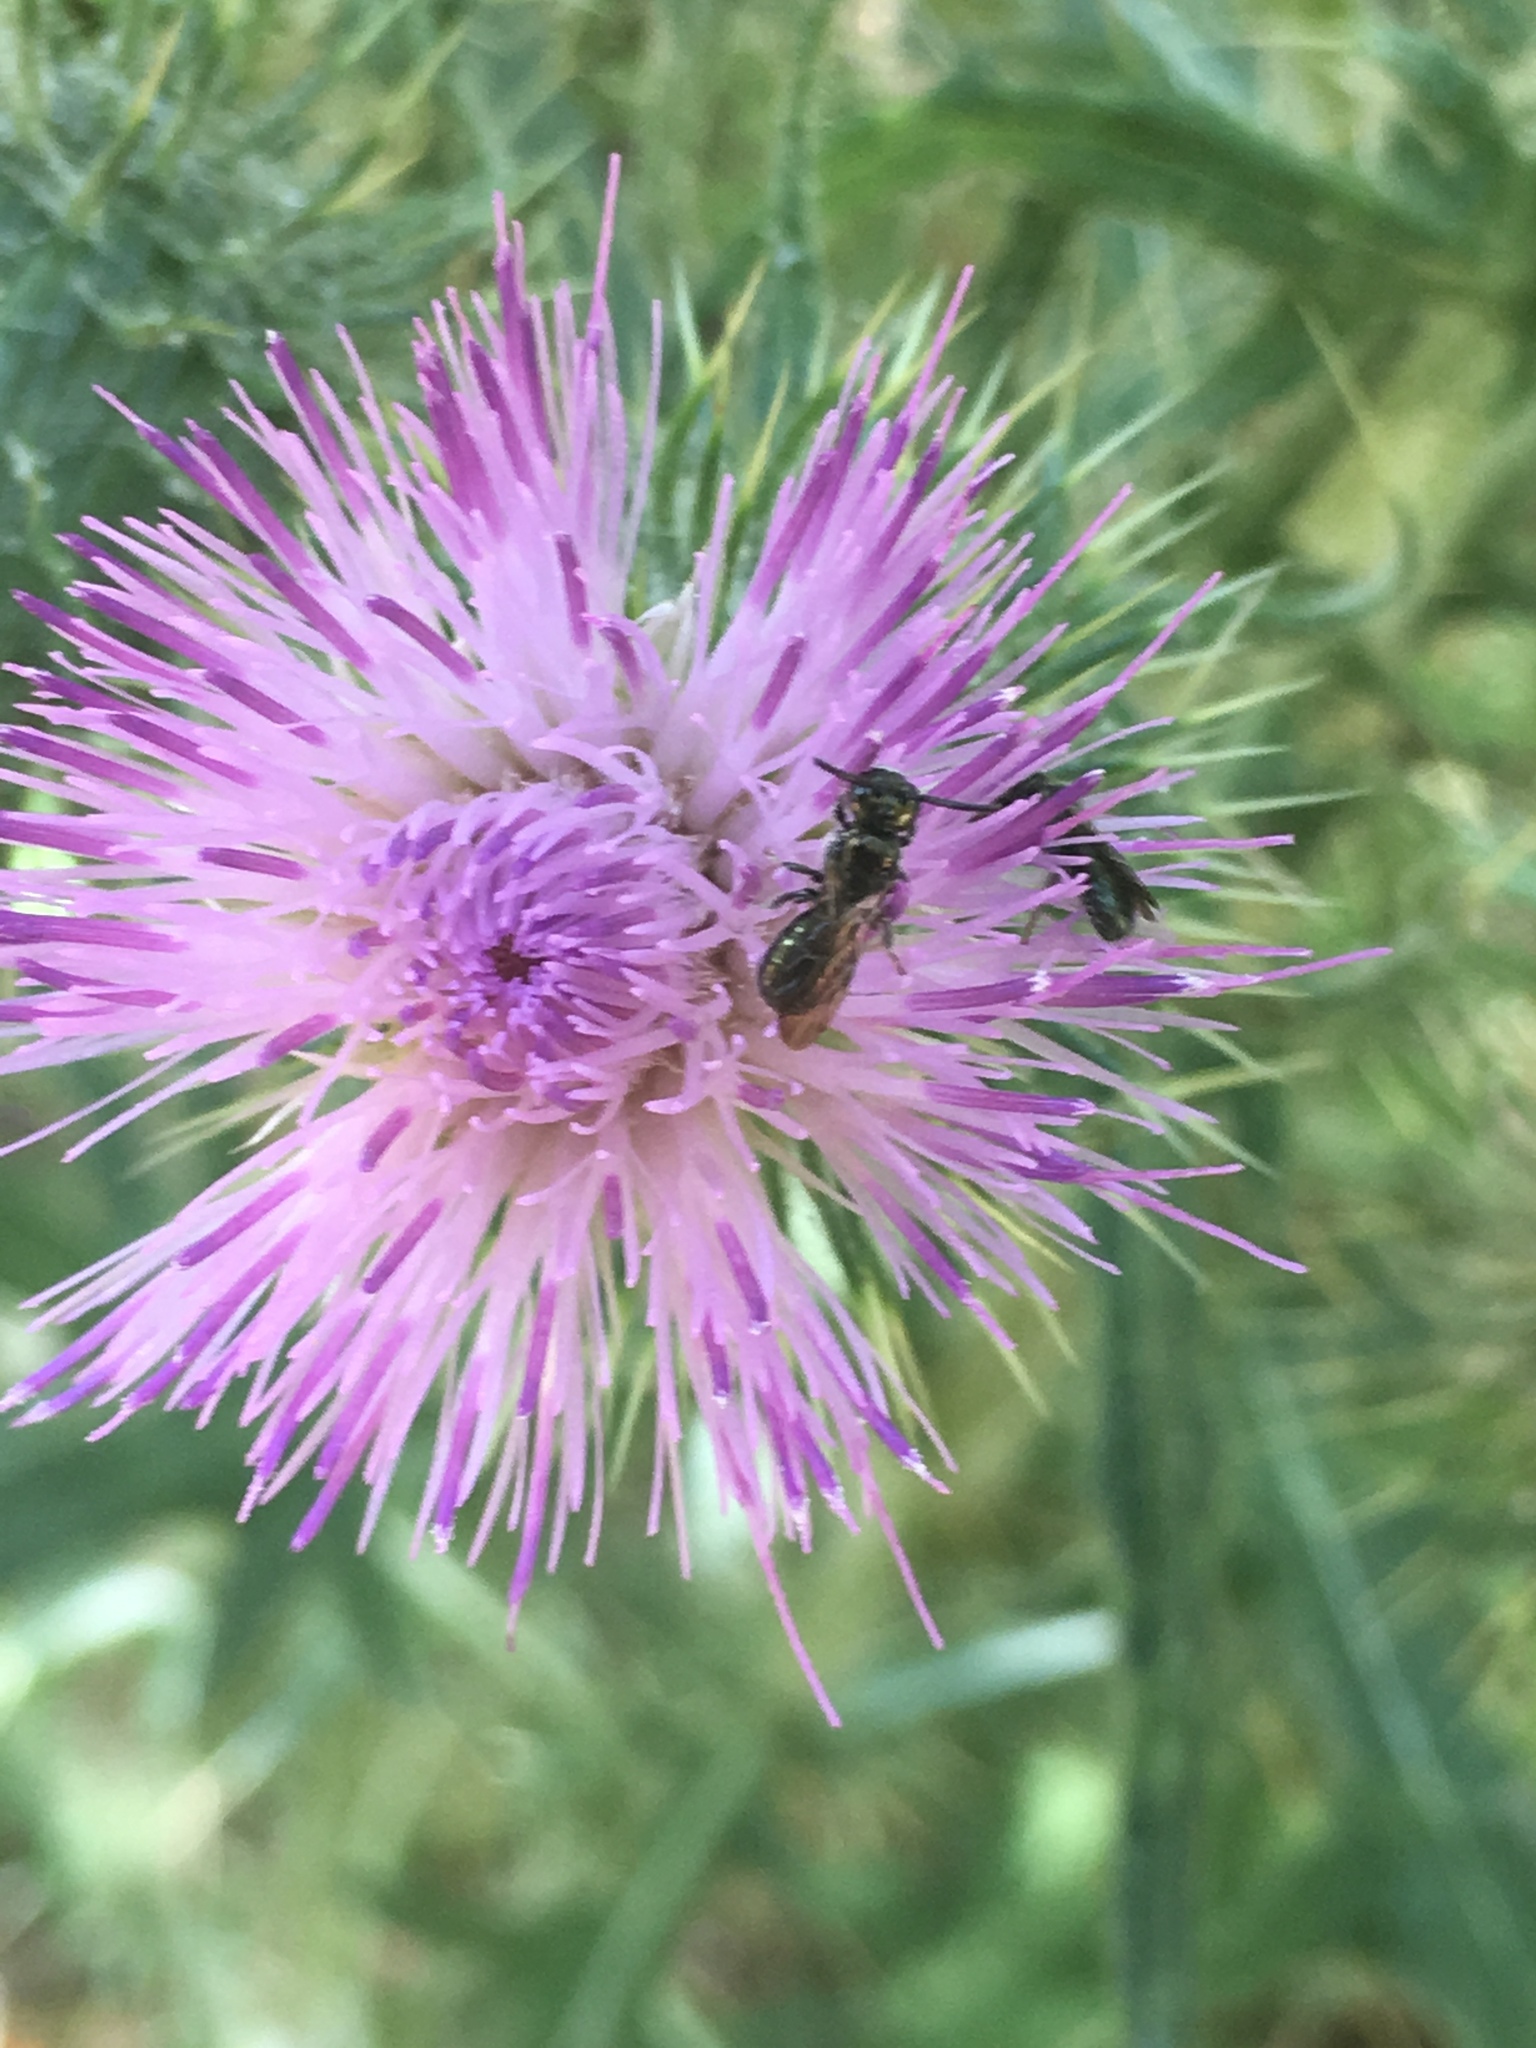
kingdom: Plantae
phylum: Tracheophyta
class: Magnoliopsida
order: Asterales
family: Asteraceae
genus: Cirsium
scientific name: Cirsium vulgare
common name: Bull thistle
